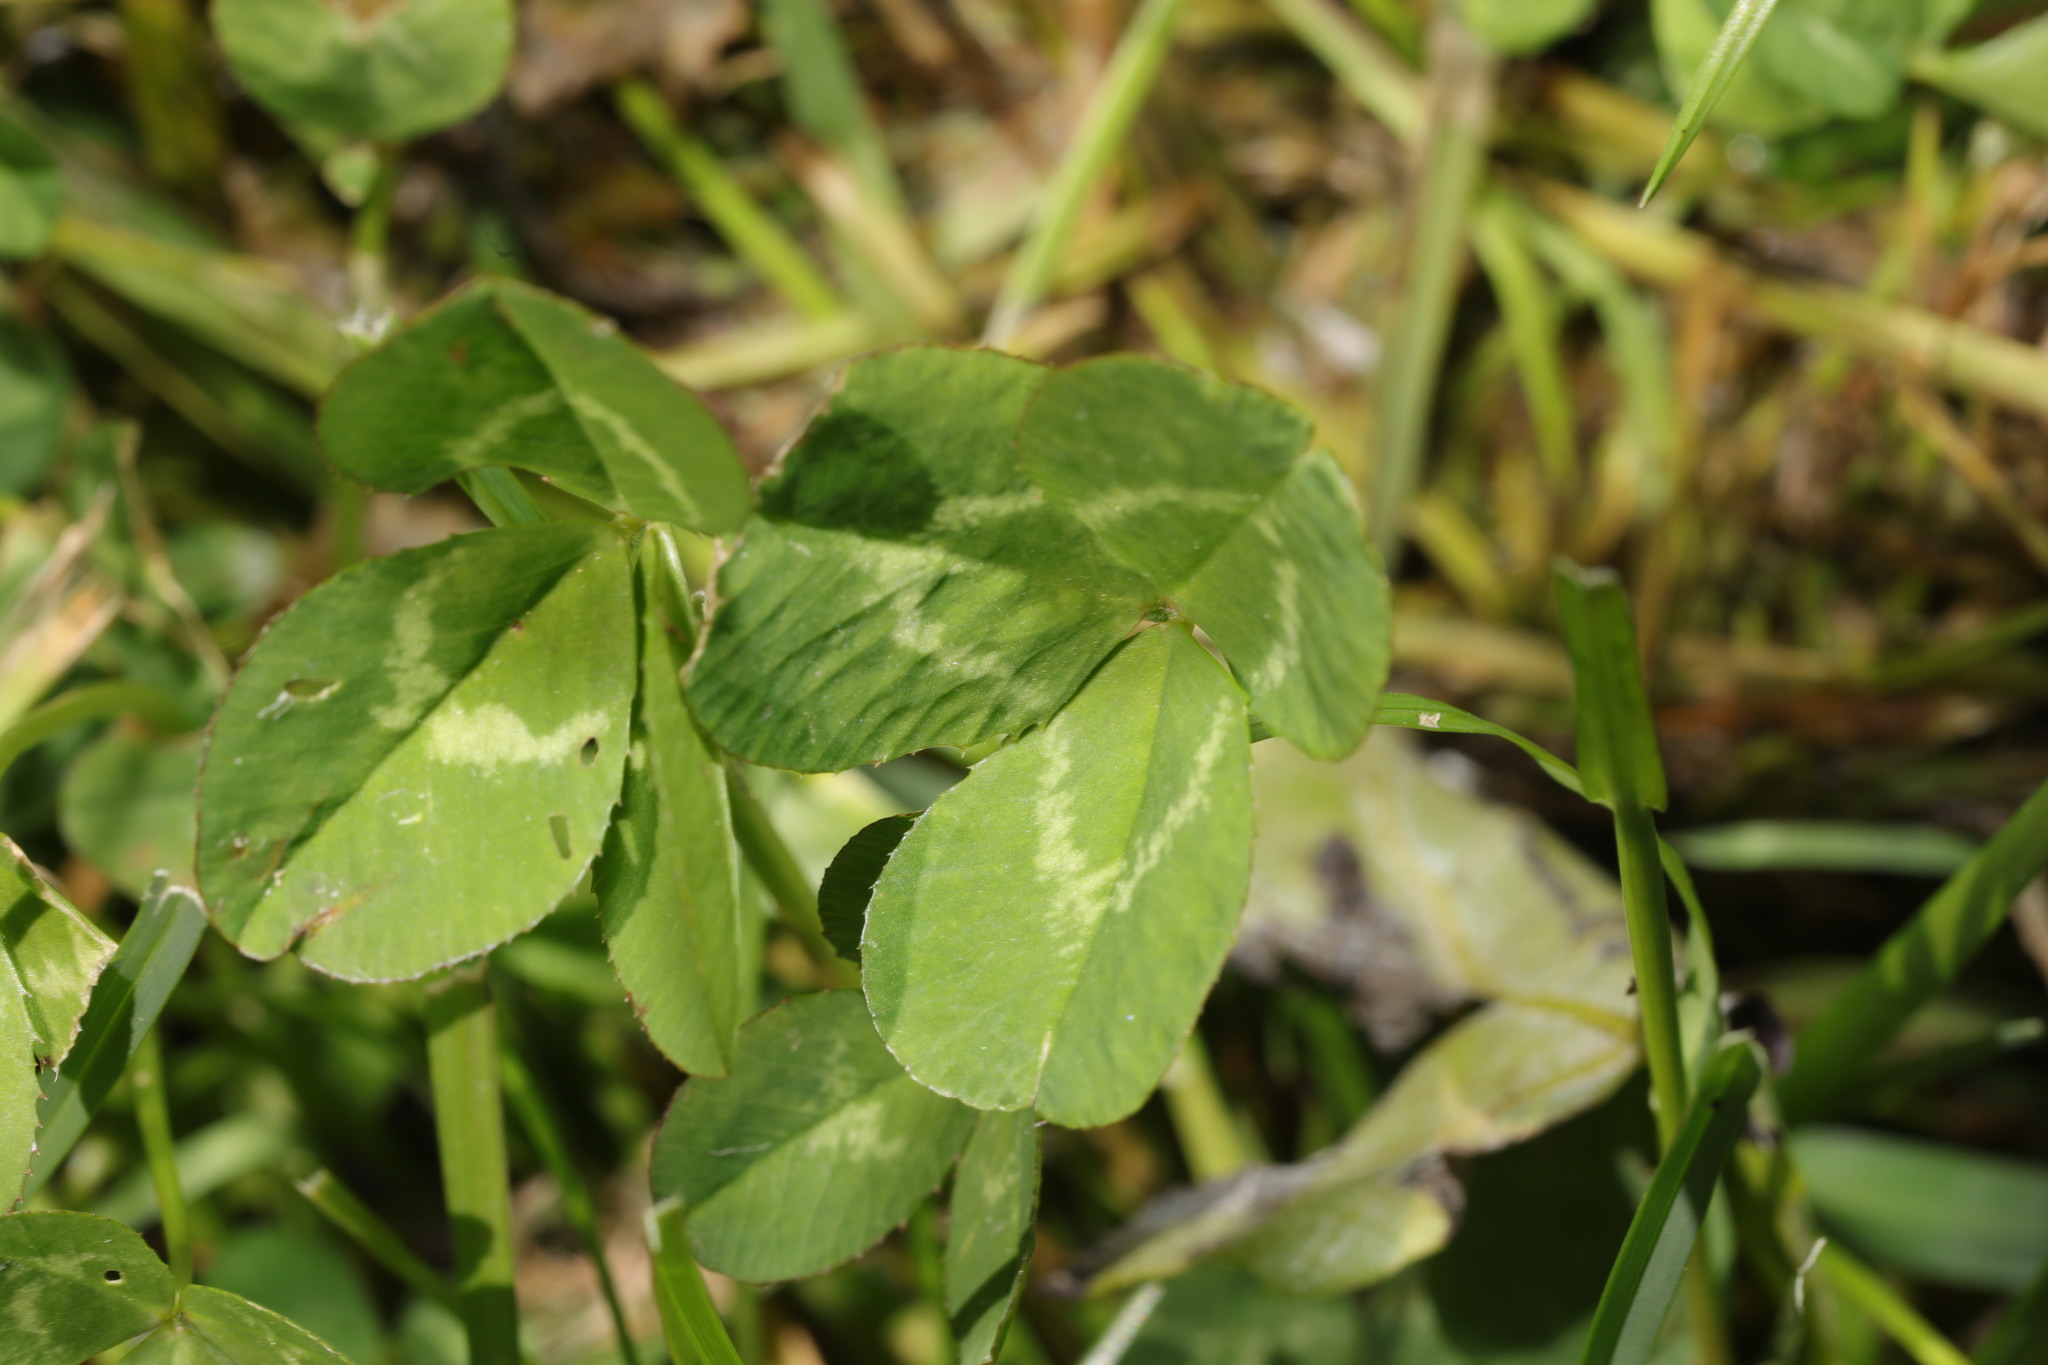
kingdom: Plantae
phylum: Tracheophyta
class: Magnoliopsida
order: Fabales
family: Fabaceae
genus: Trifolium
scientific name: Trifolium repens
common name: White clover
